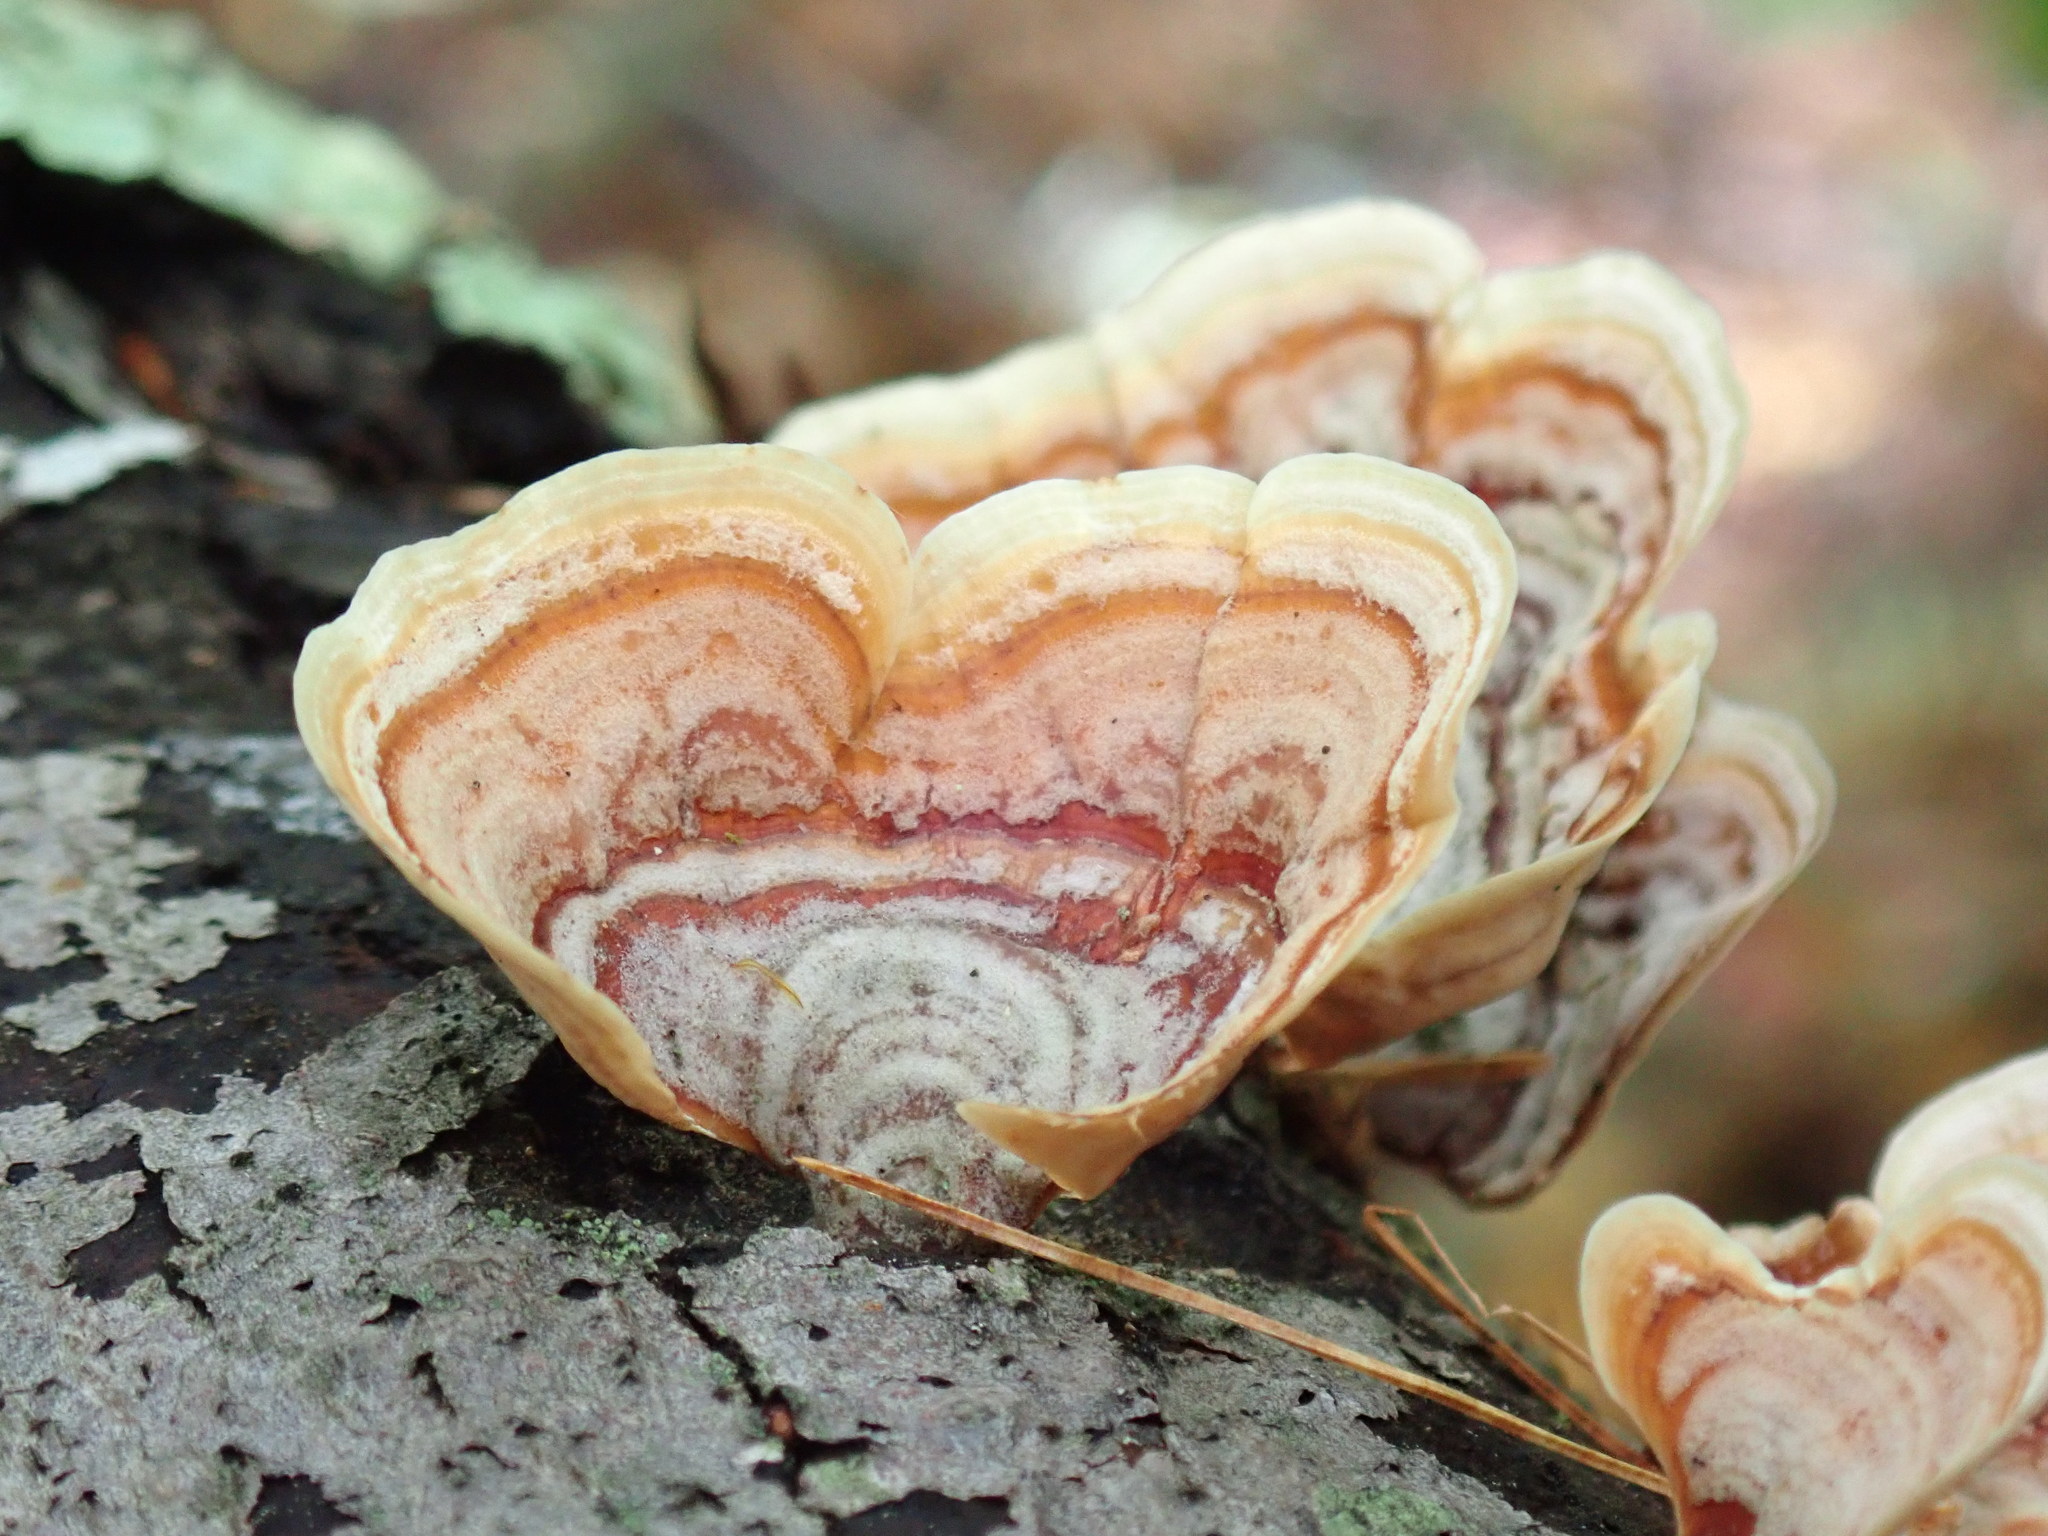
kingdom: Fungi
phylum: Basidiomycota
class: Agaricomycetes
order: Russulales
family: Stereaceae
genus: Stereum
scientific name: Stereum ostrea
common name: False turkeytail
